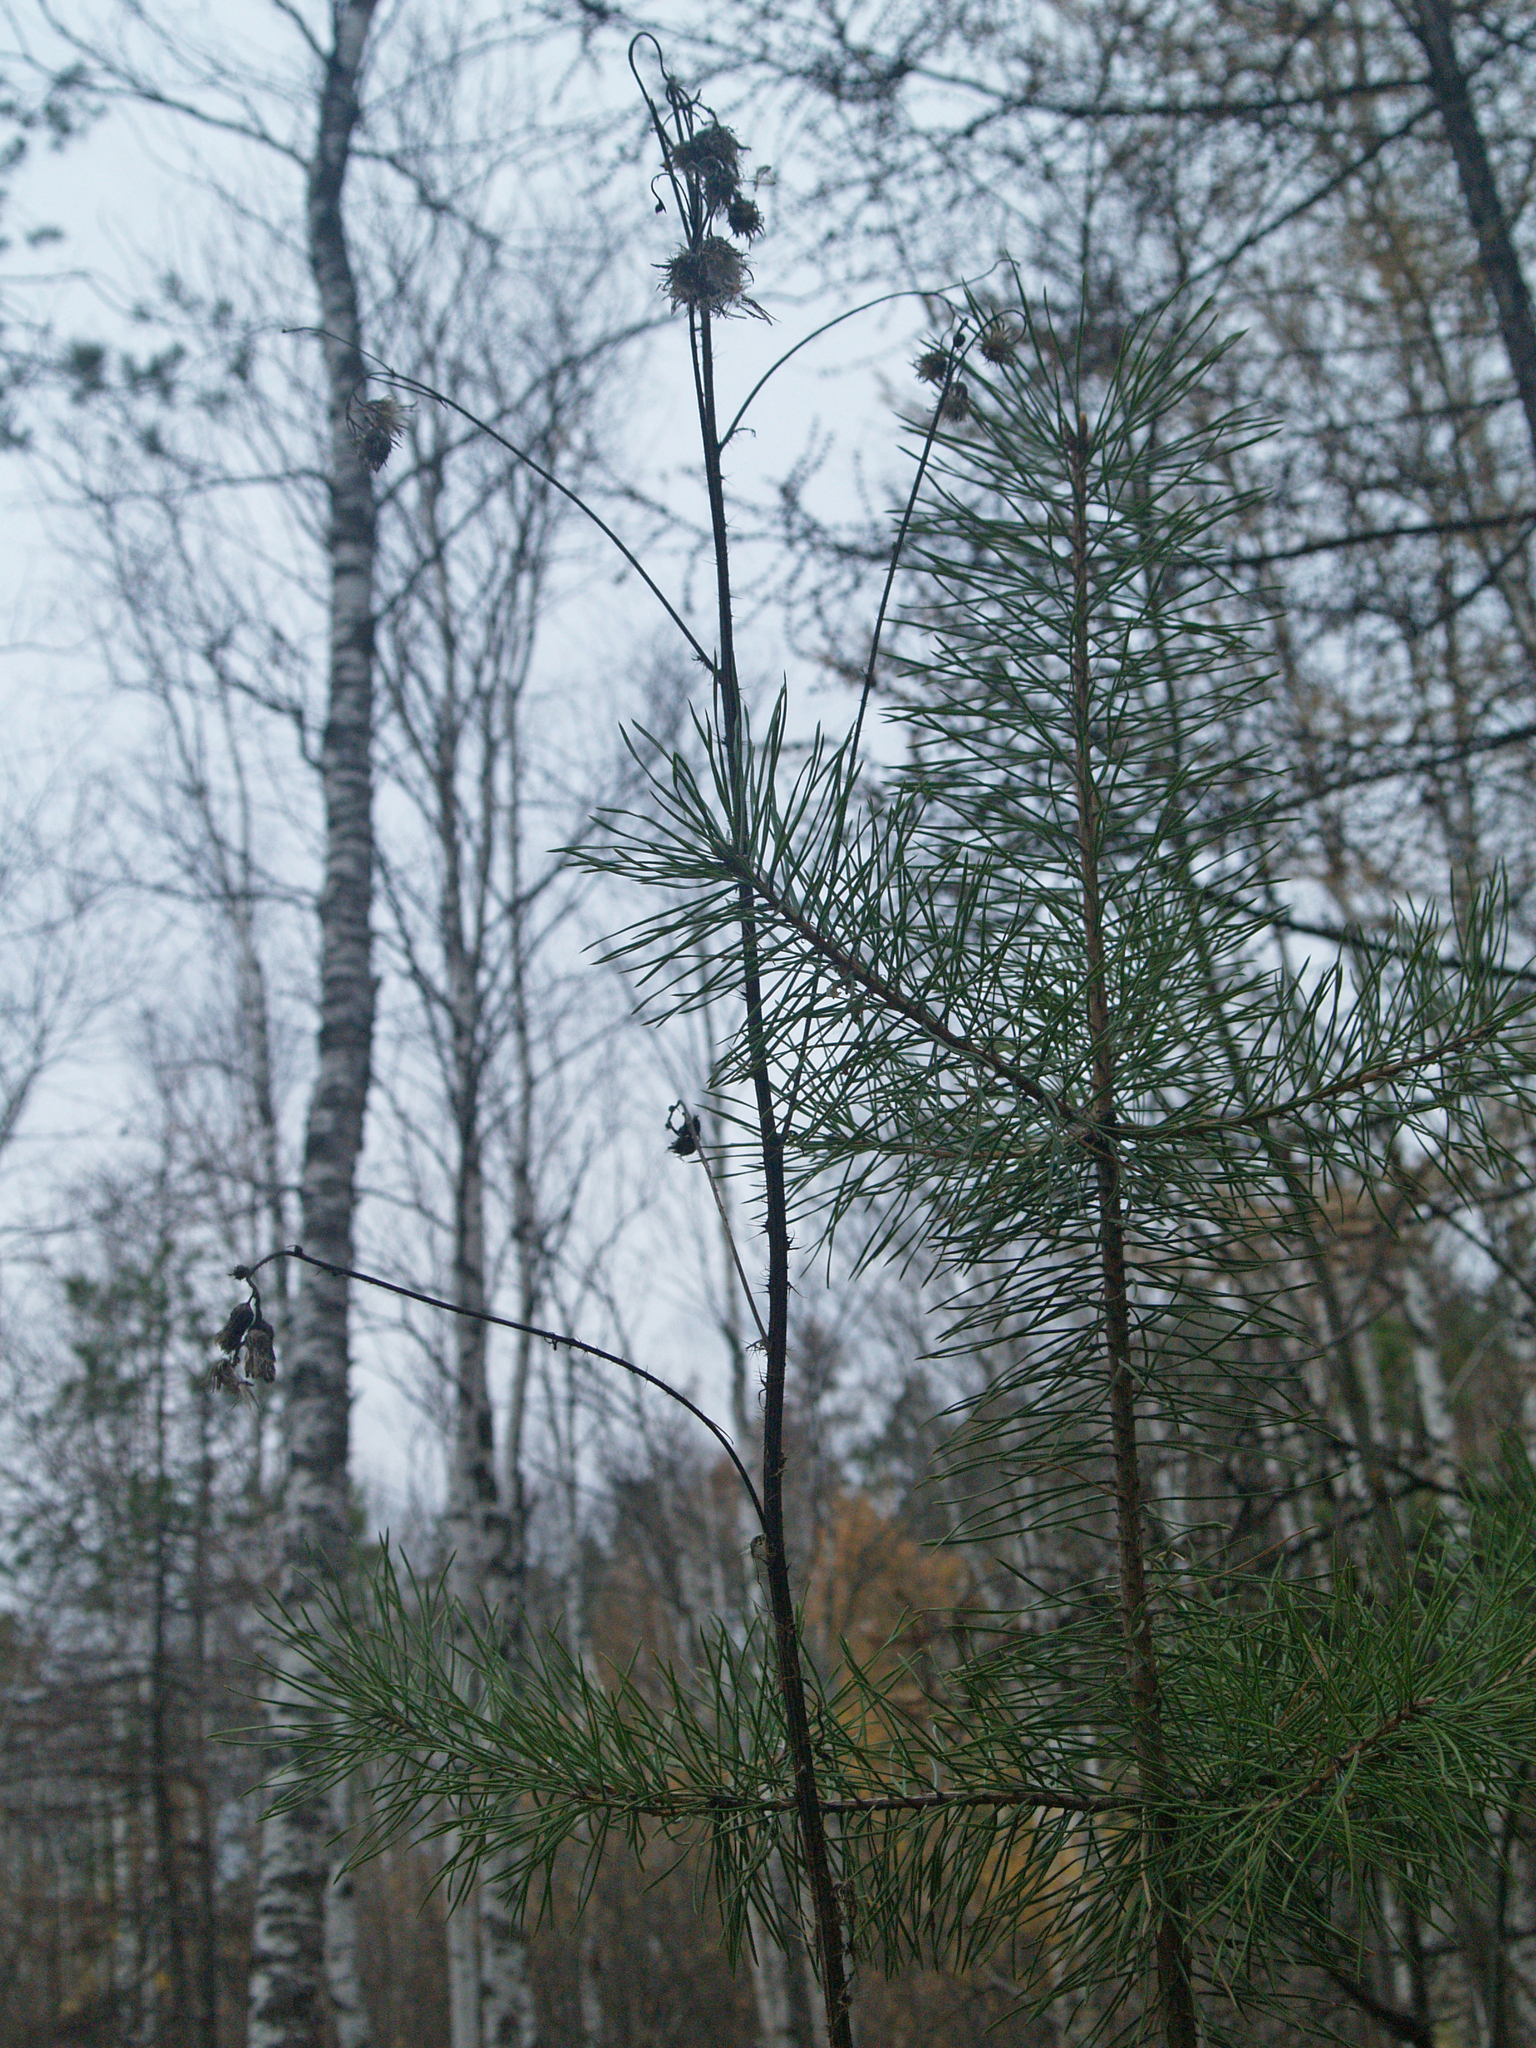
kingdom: Plantae
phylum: Tracheophyta
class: Pinopsida
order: Pinales
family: Pinaceae
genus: Pinus
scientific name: Pinus sylvestris
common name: Scots pine
